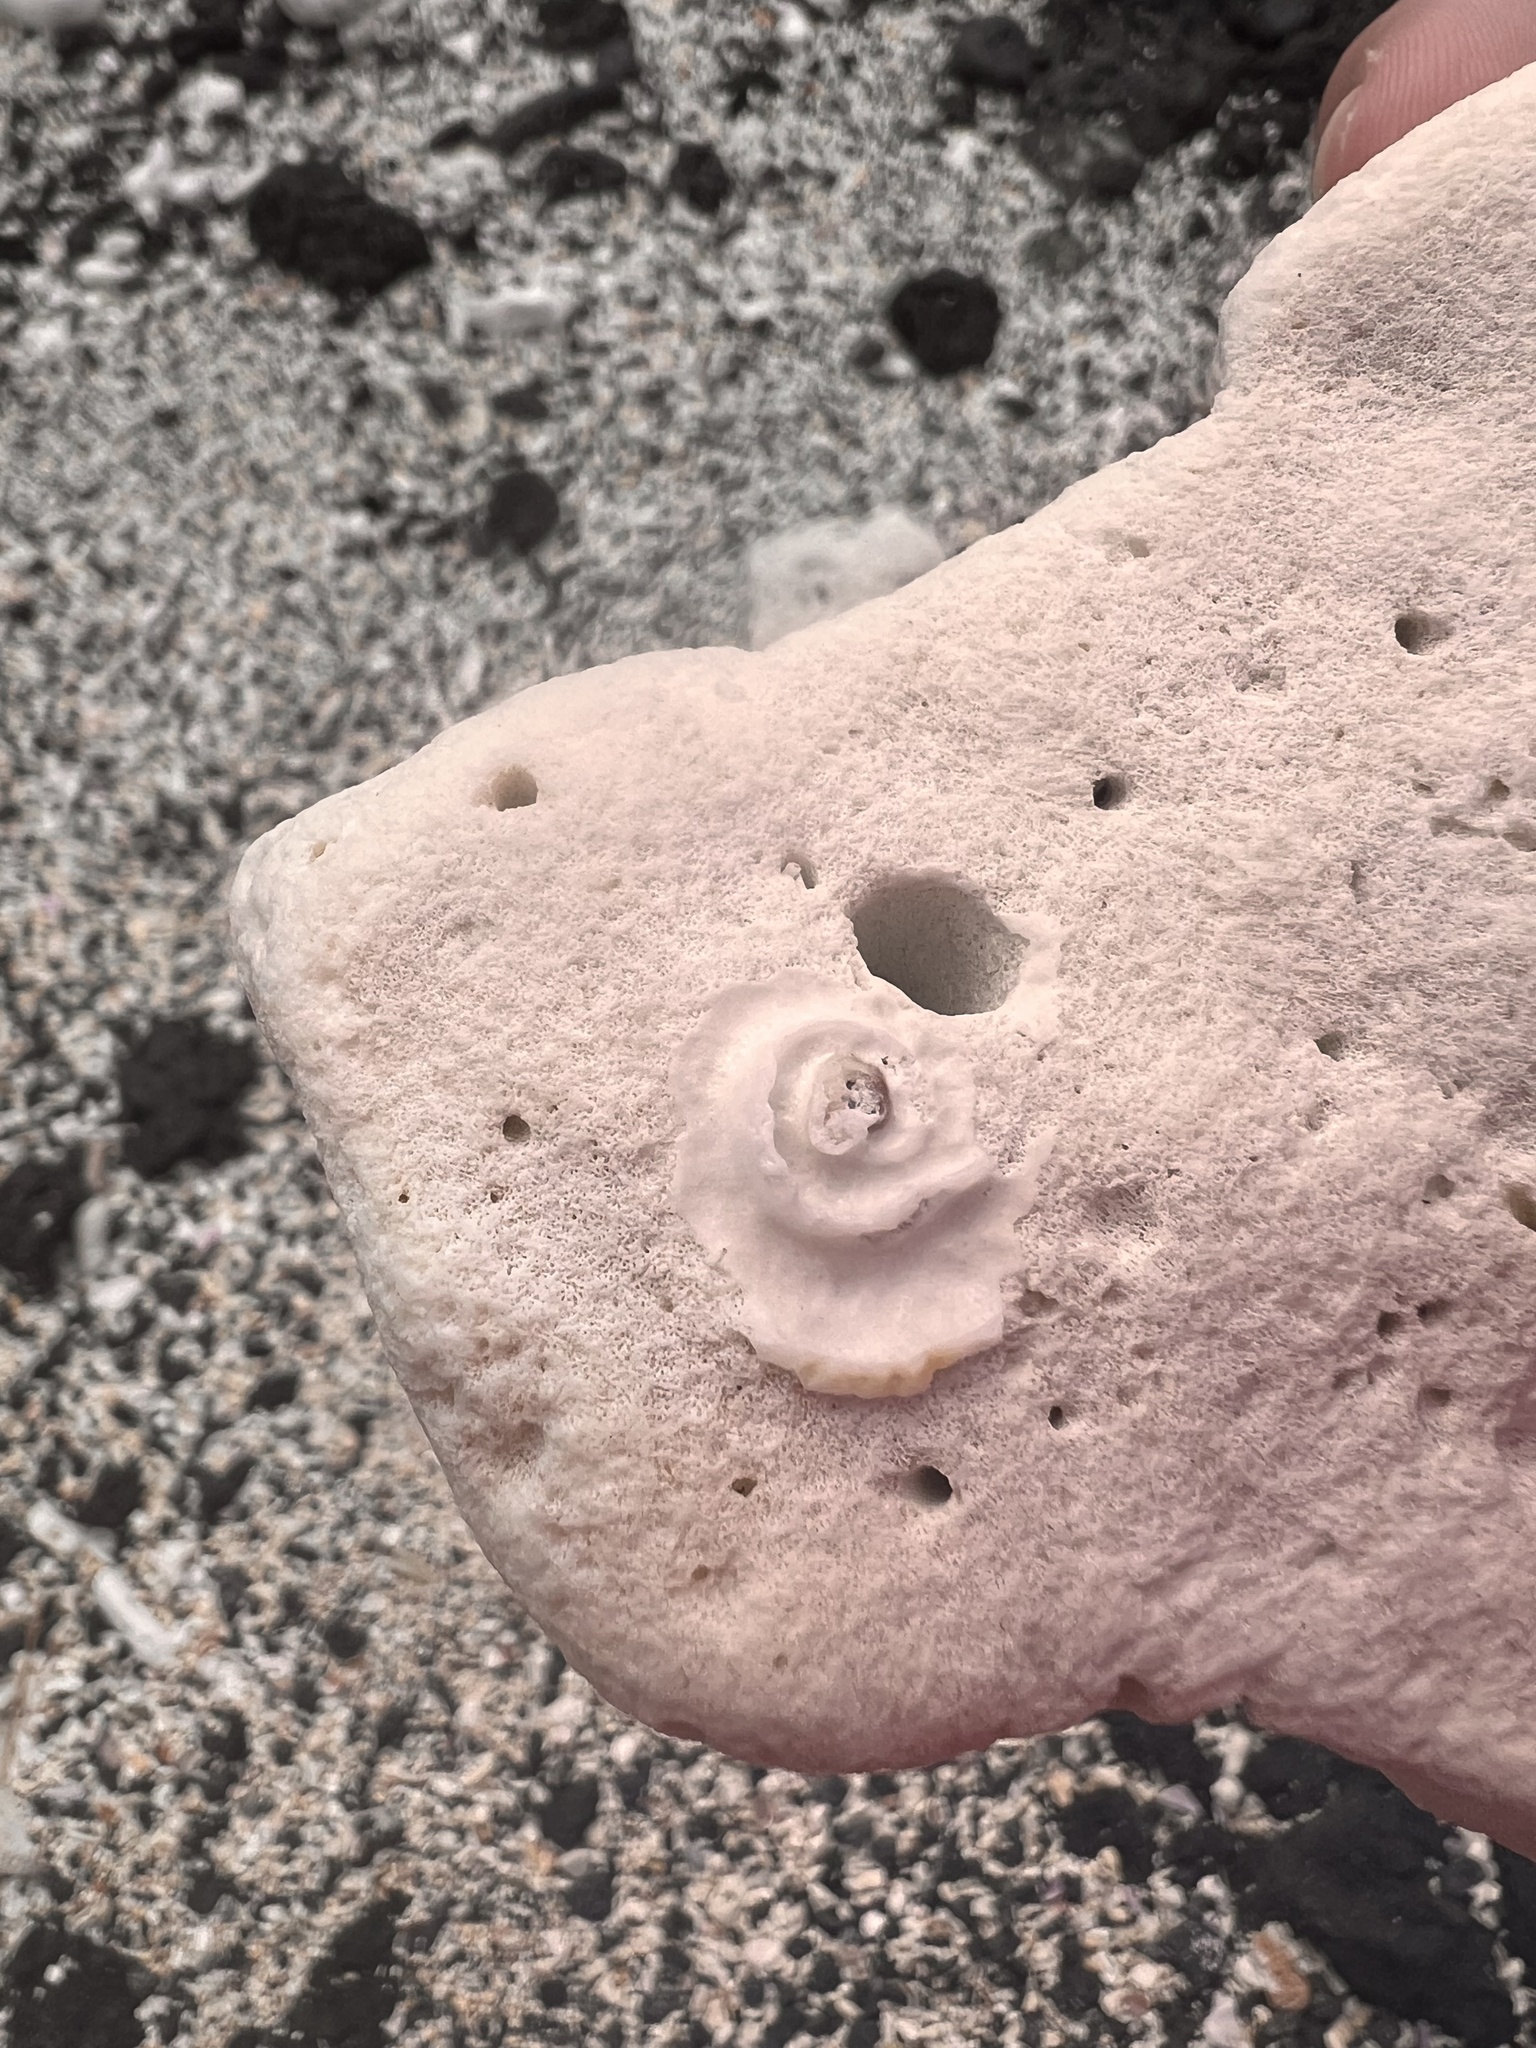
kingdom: Animalia
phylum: Mollusca
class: Gastropoda
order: Littorinimorpha
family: Vermetidae
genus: Thylacodes
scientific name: Thylacodes variabilis
